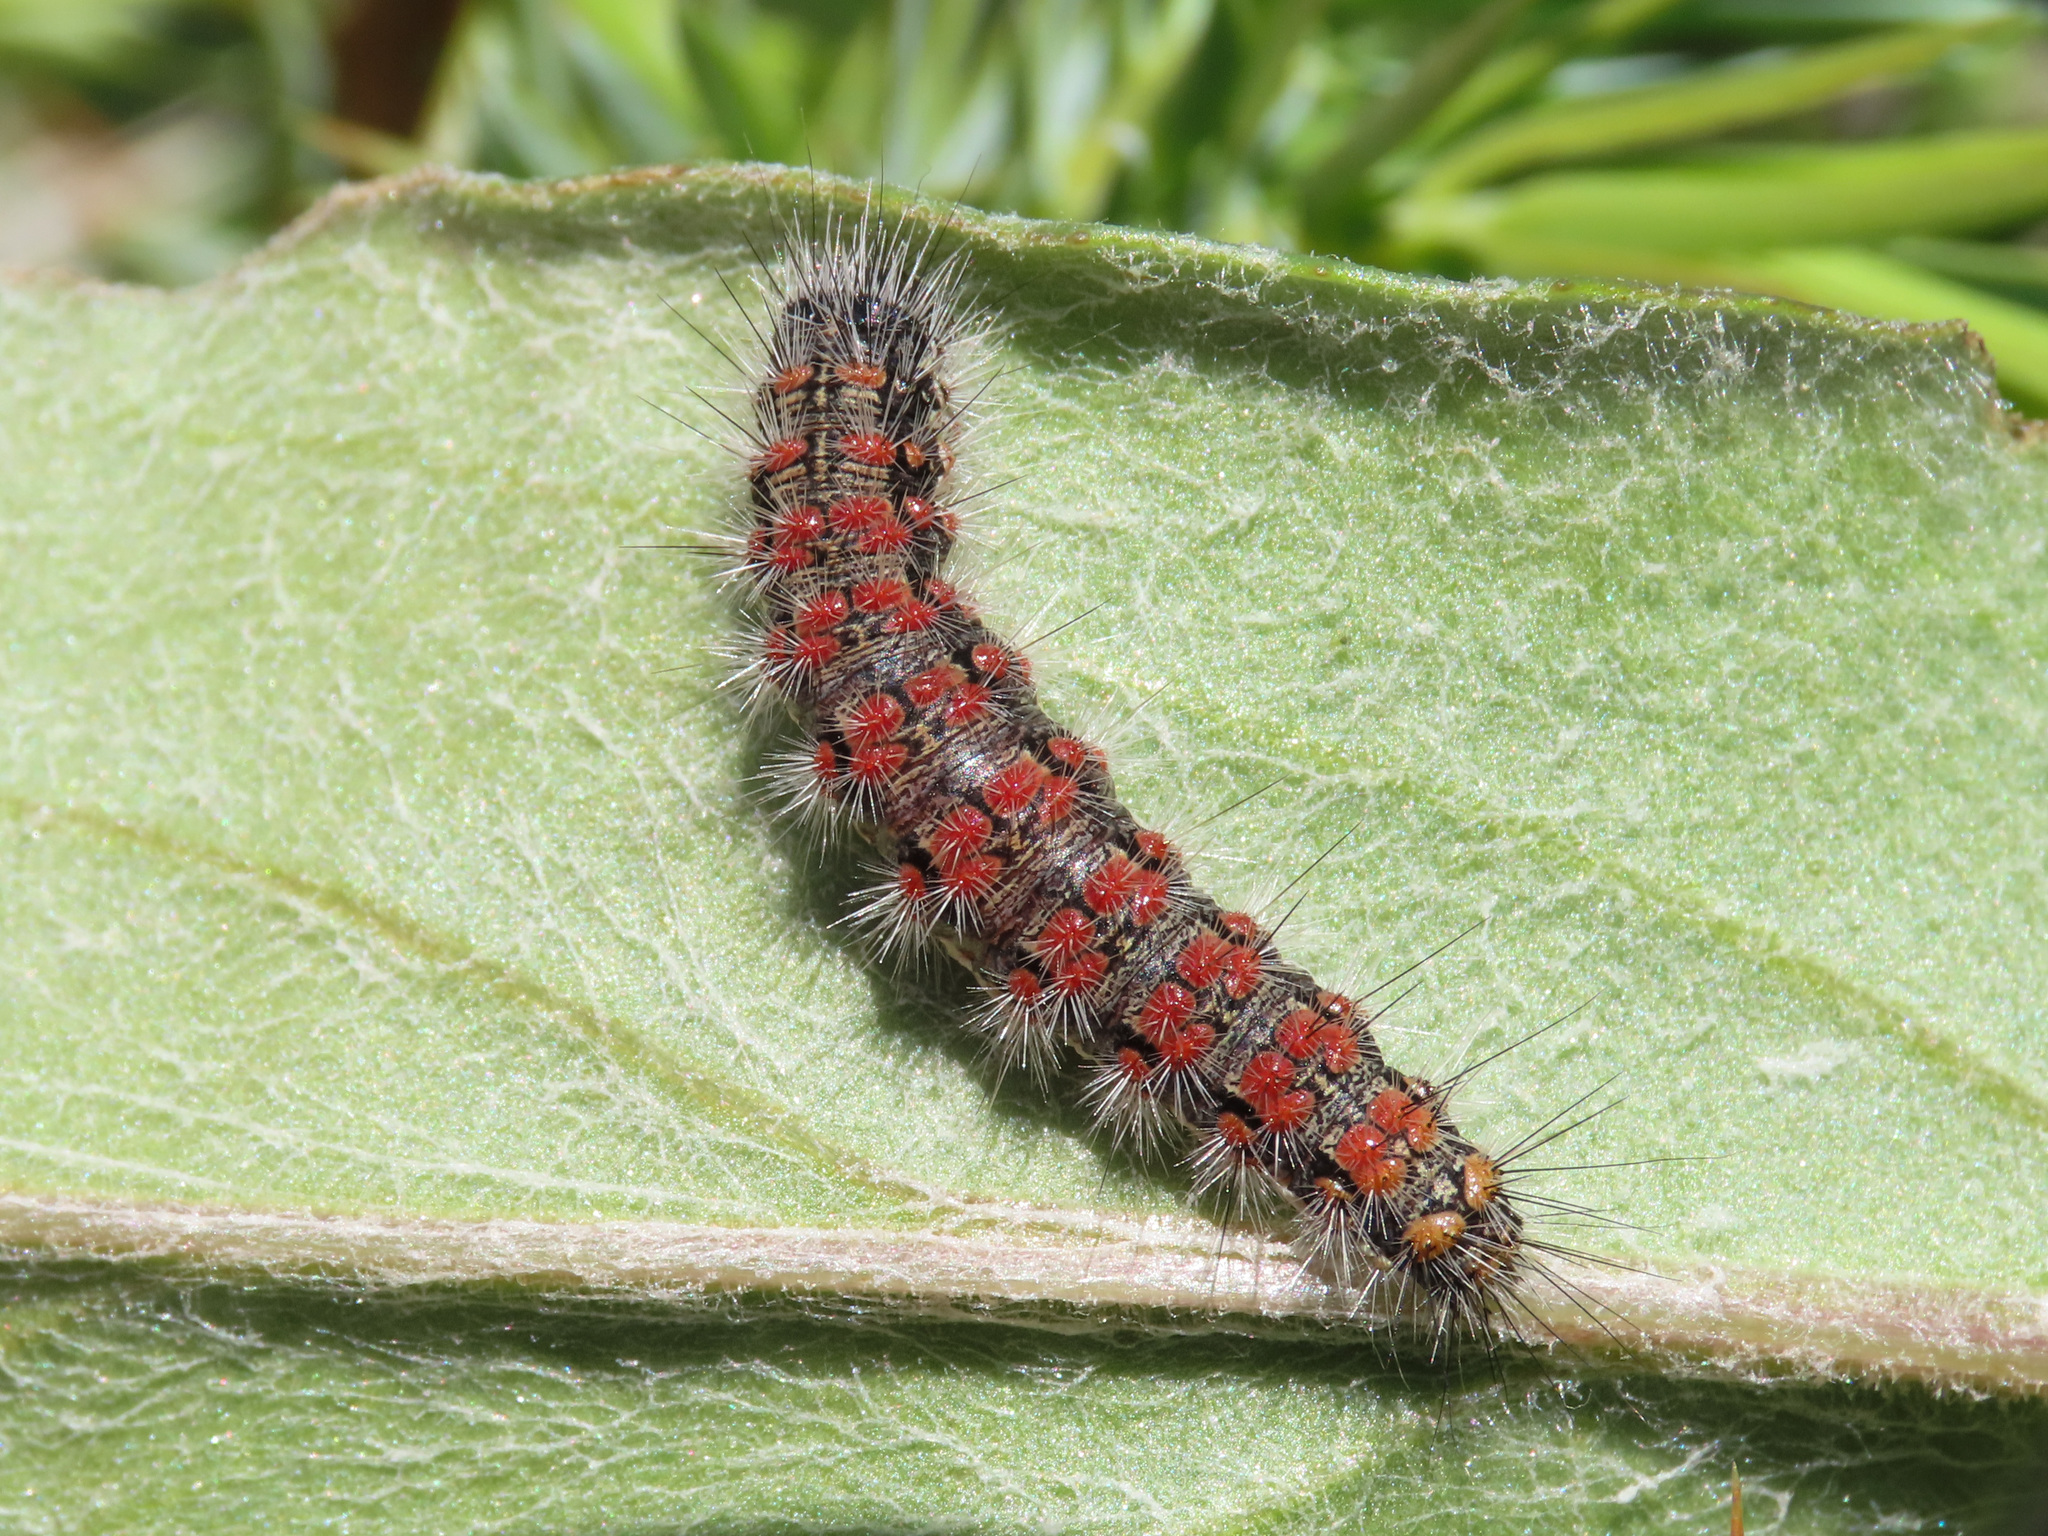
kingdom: Animalia
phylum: Arthropoda
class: Insecta
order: Lepidoptera
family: Erebidae
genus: Cymbalophora
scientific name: Cymbalophora rivularis
